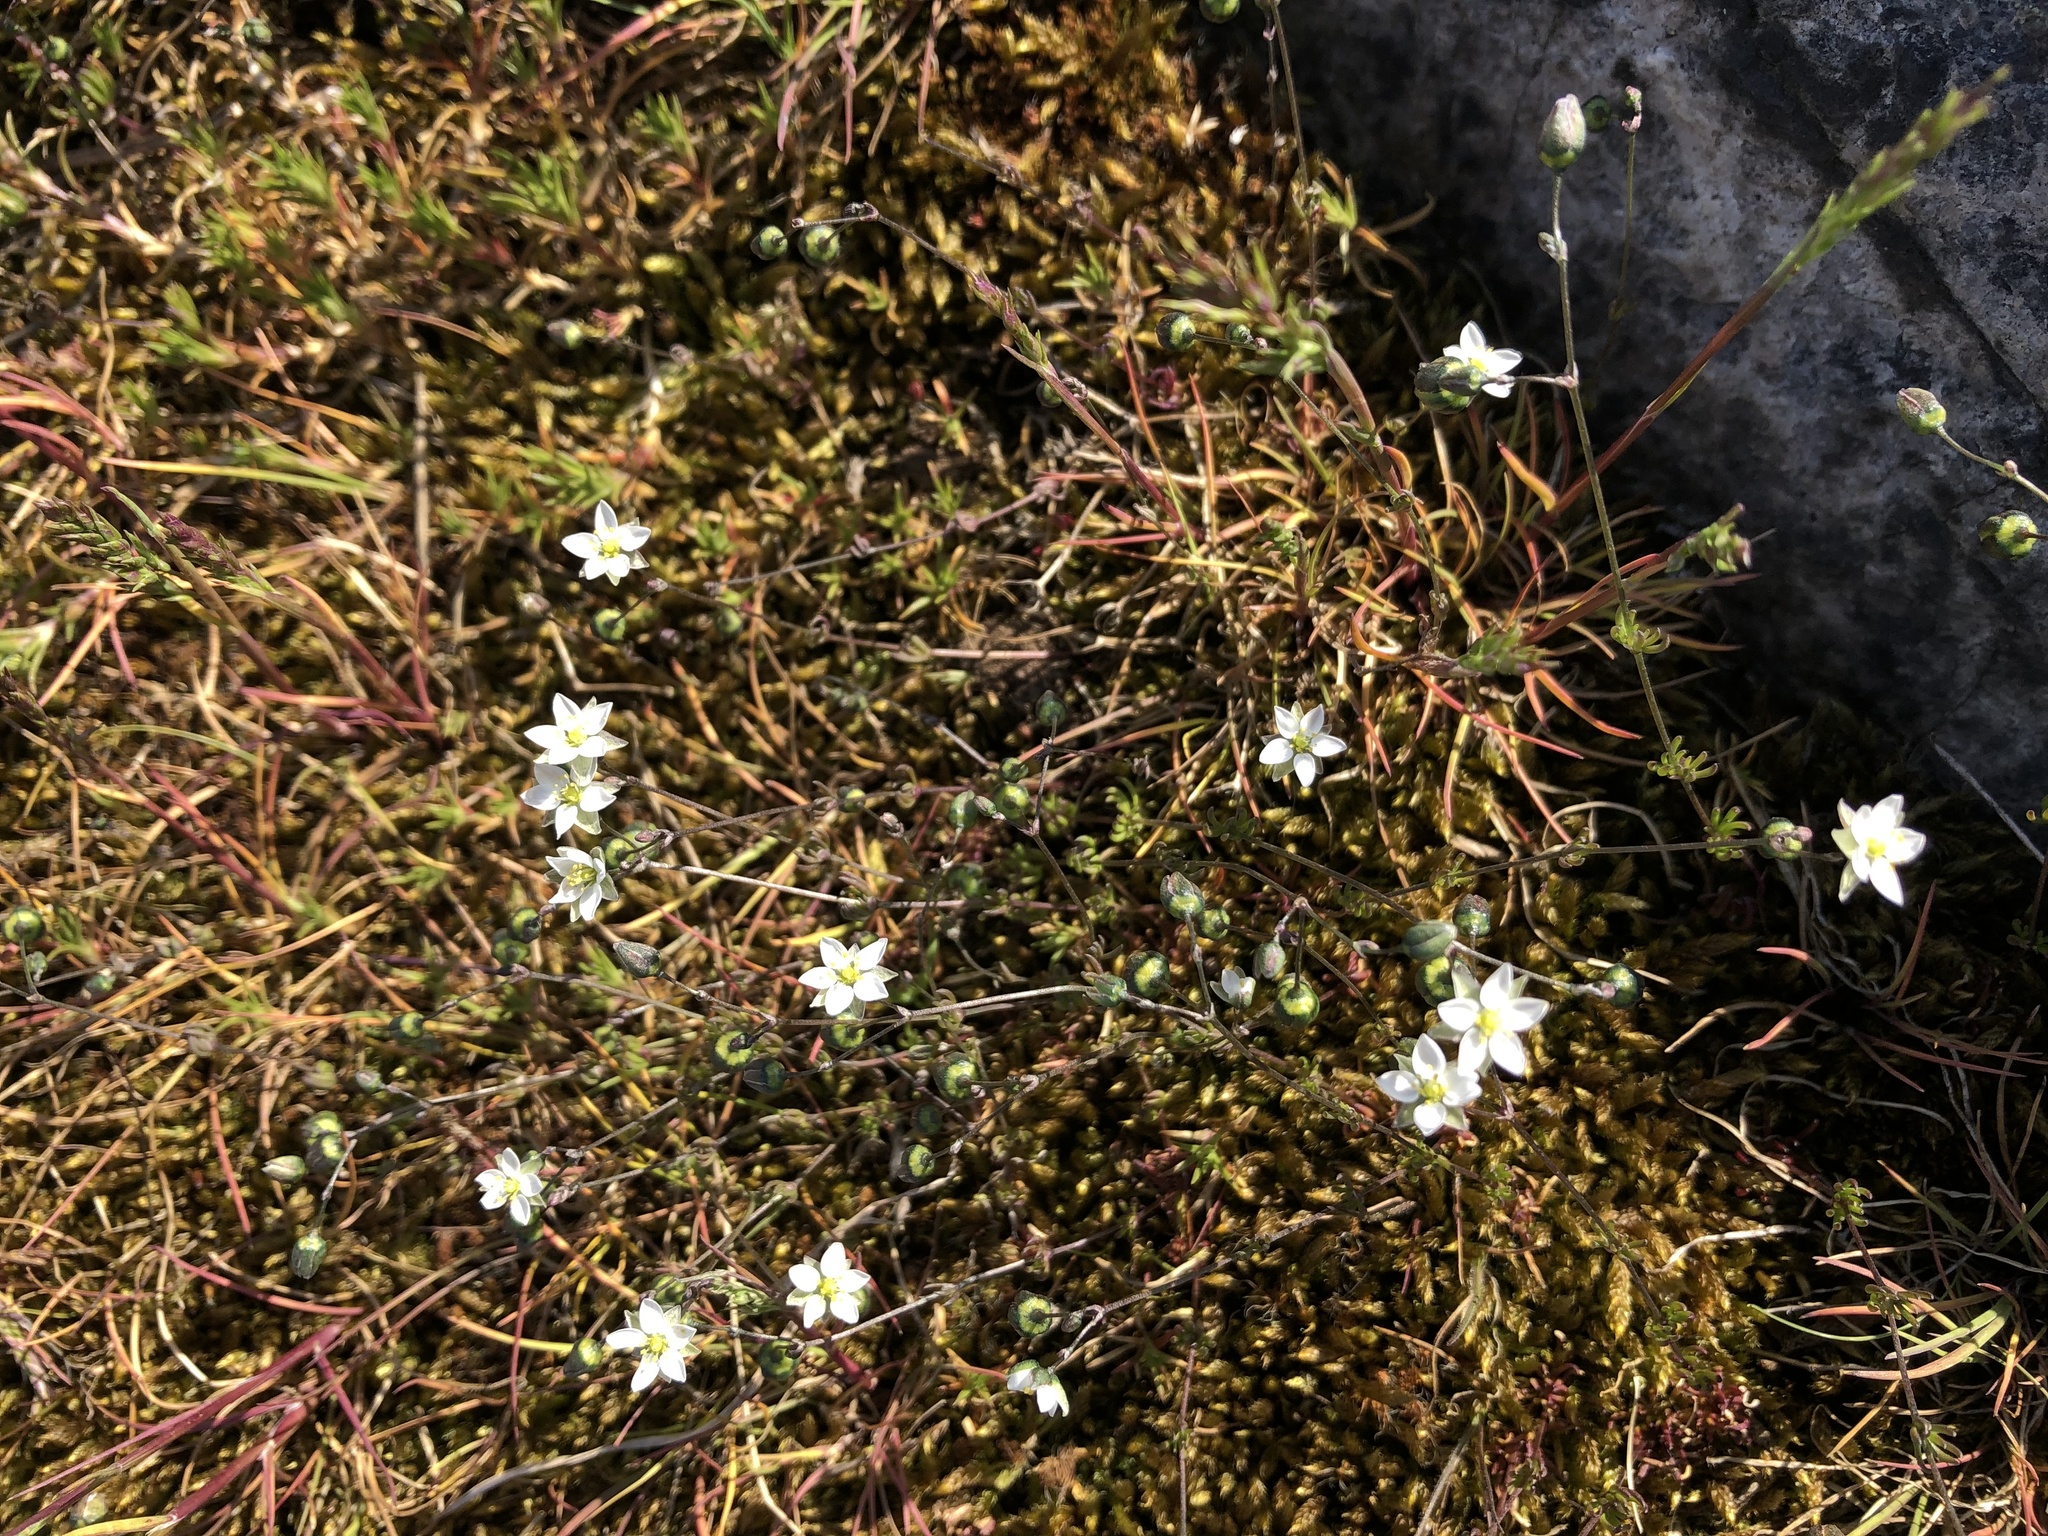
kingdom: Plantae
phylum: Tracheophyta
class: Magnoliopsida
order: Caryophyllales
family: Caryophyllaceae
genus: Spergula
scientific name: Spergula morisonii
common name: Pearlwort spurrey
